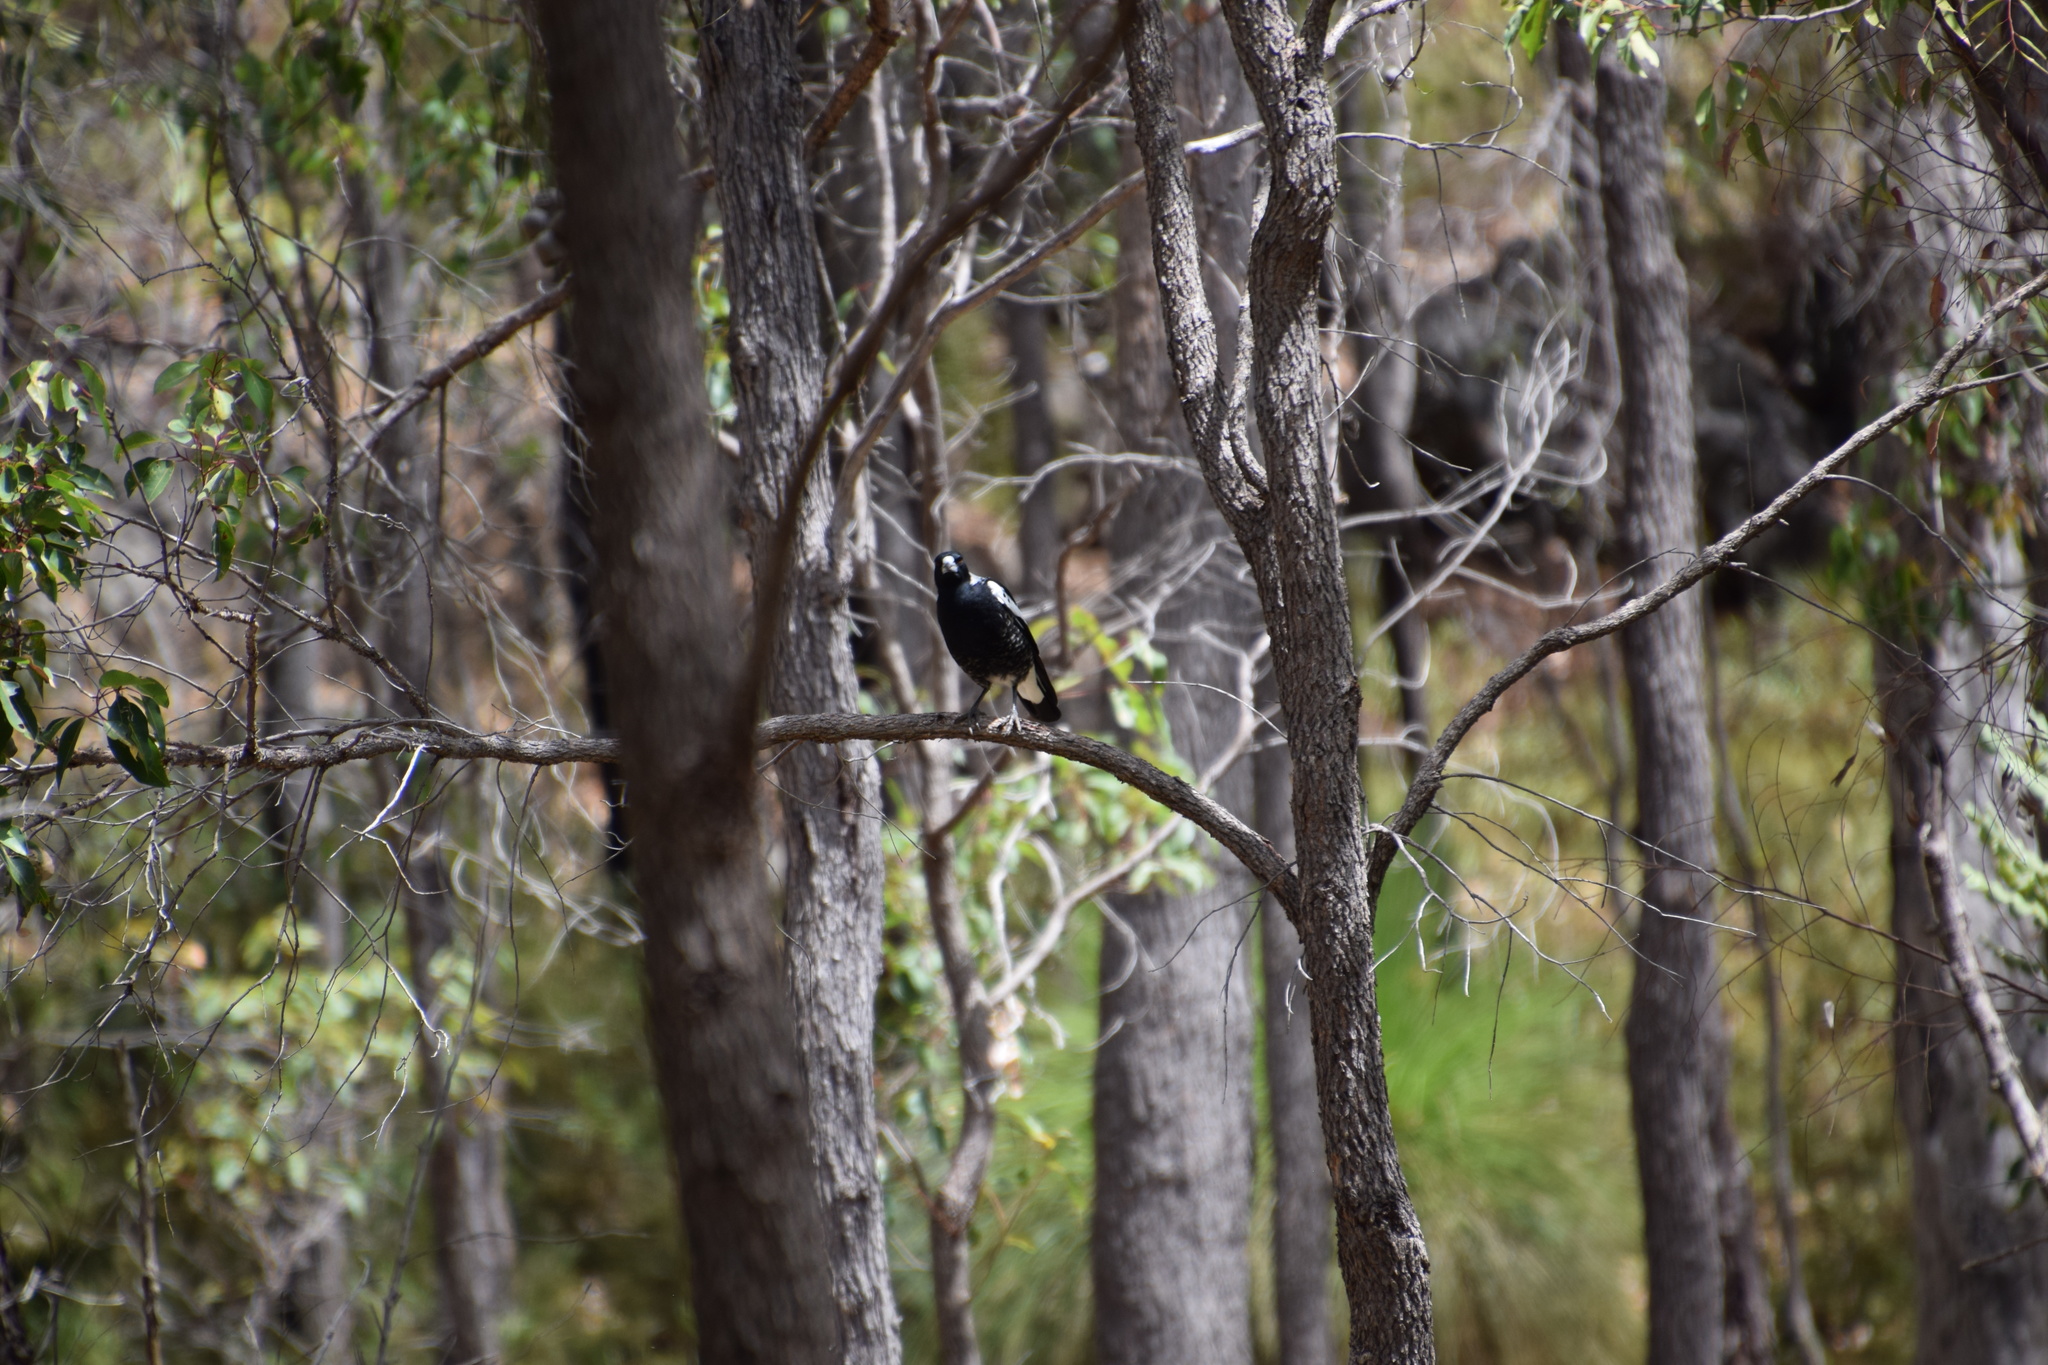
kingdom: Animalia
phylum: Chordata
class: Aves
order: Passeriformes
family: Cracticidae
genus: Gymnorhina
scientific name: Gymnorhina tibicen
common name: Australian magpie
